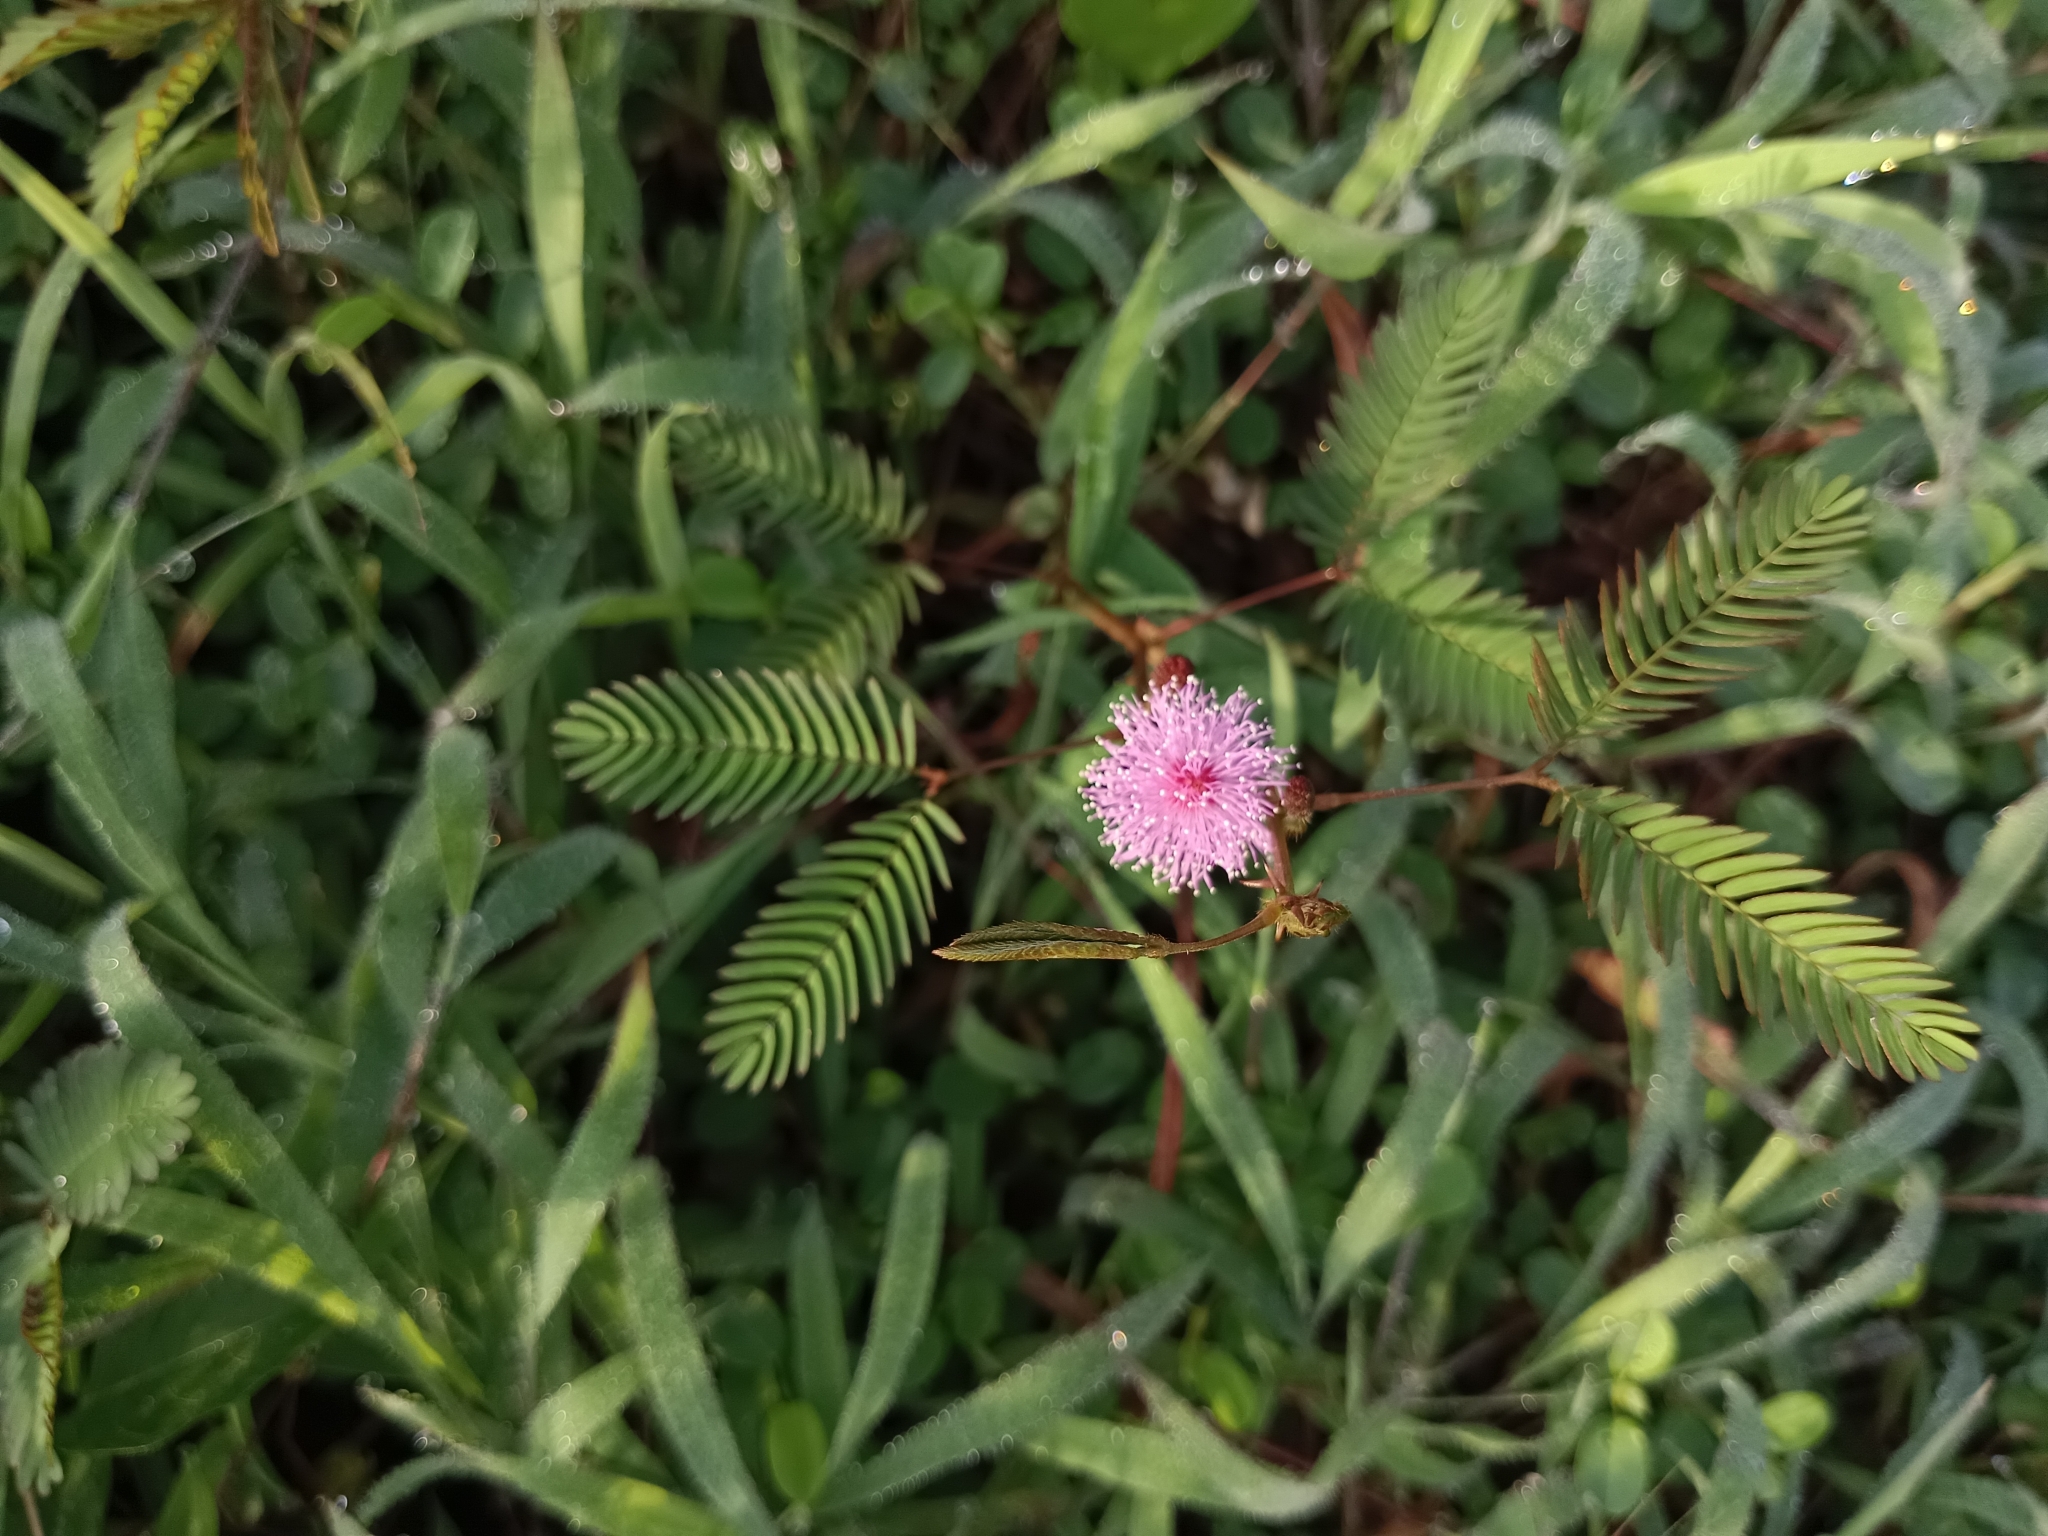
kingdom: Plantae
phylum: Tracheophyta
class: Magnoliopsida
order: Fabales
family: Fabaceae
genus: Mimosa
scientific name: Mimosa pudica
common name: Sensitive plant
